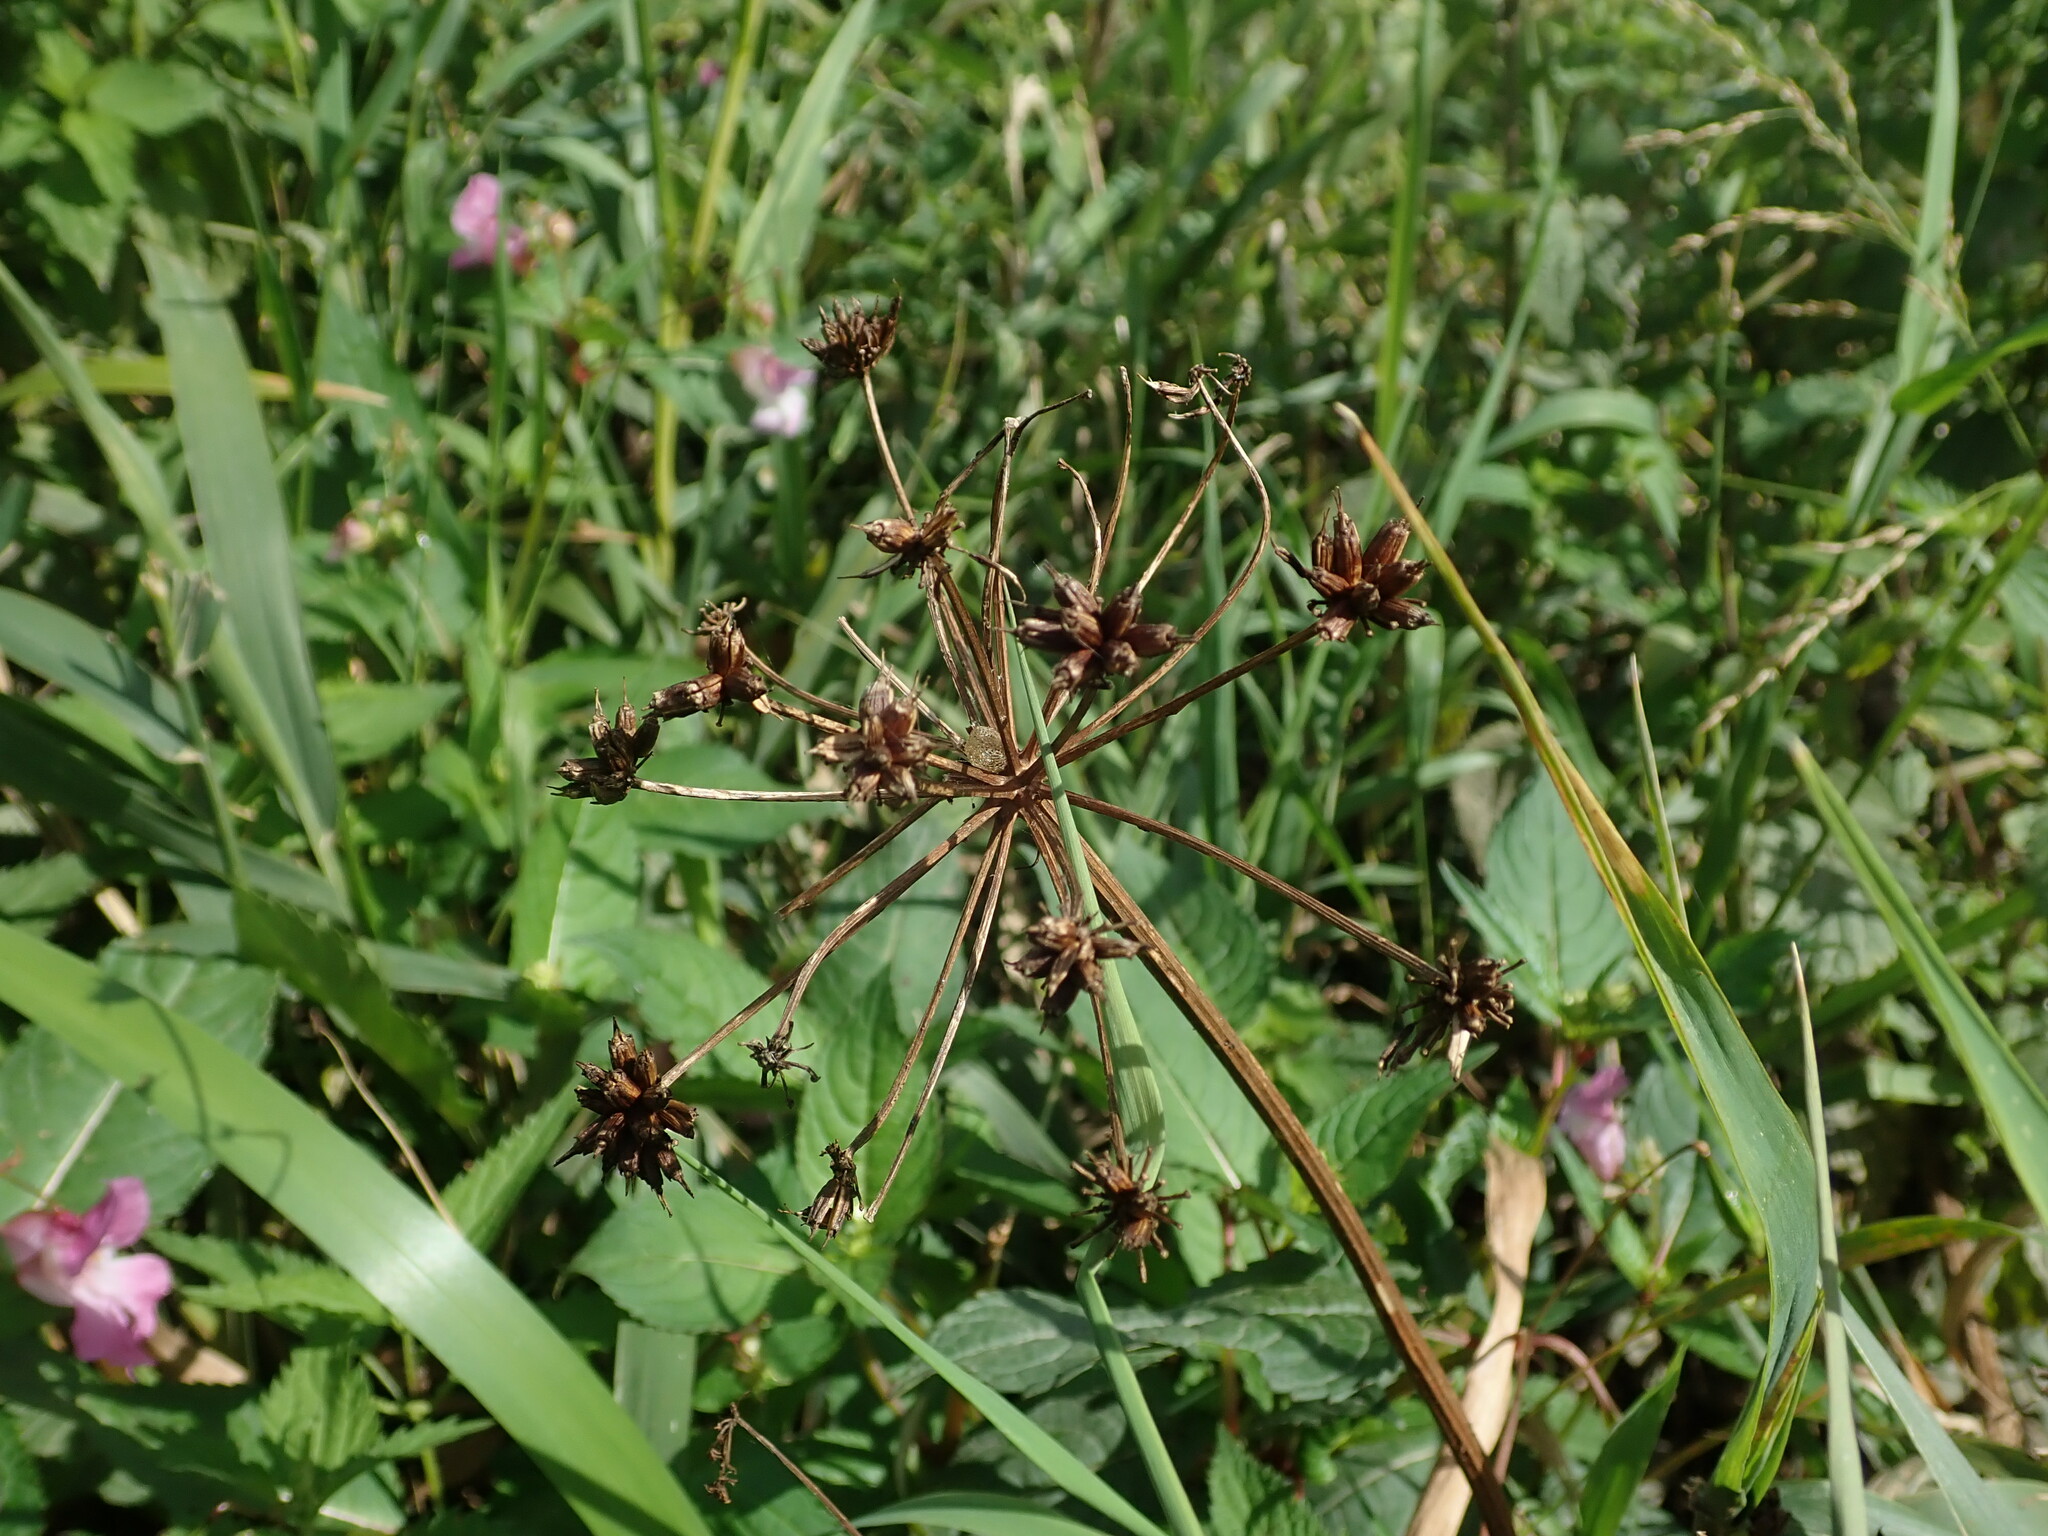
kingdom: Plantae
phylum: Tracheophyta
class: Magnoliopsida
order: Apiales
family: Apiaceae
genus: Oenanthe
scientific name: Oenanthe crocata
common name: Hemlock water-dropwort
